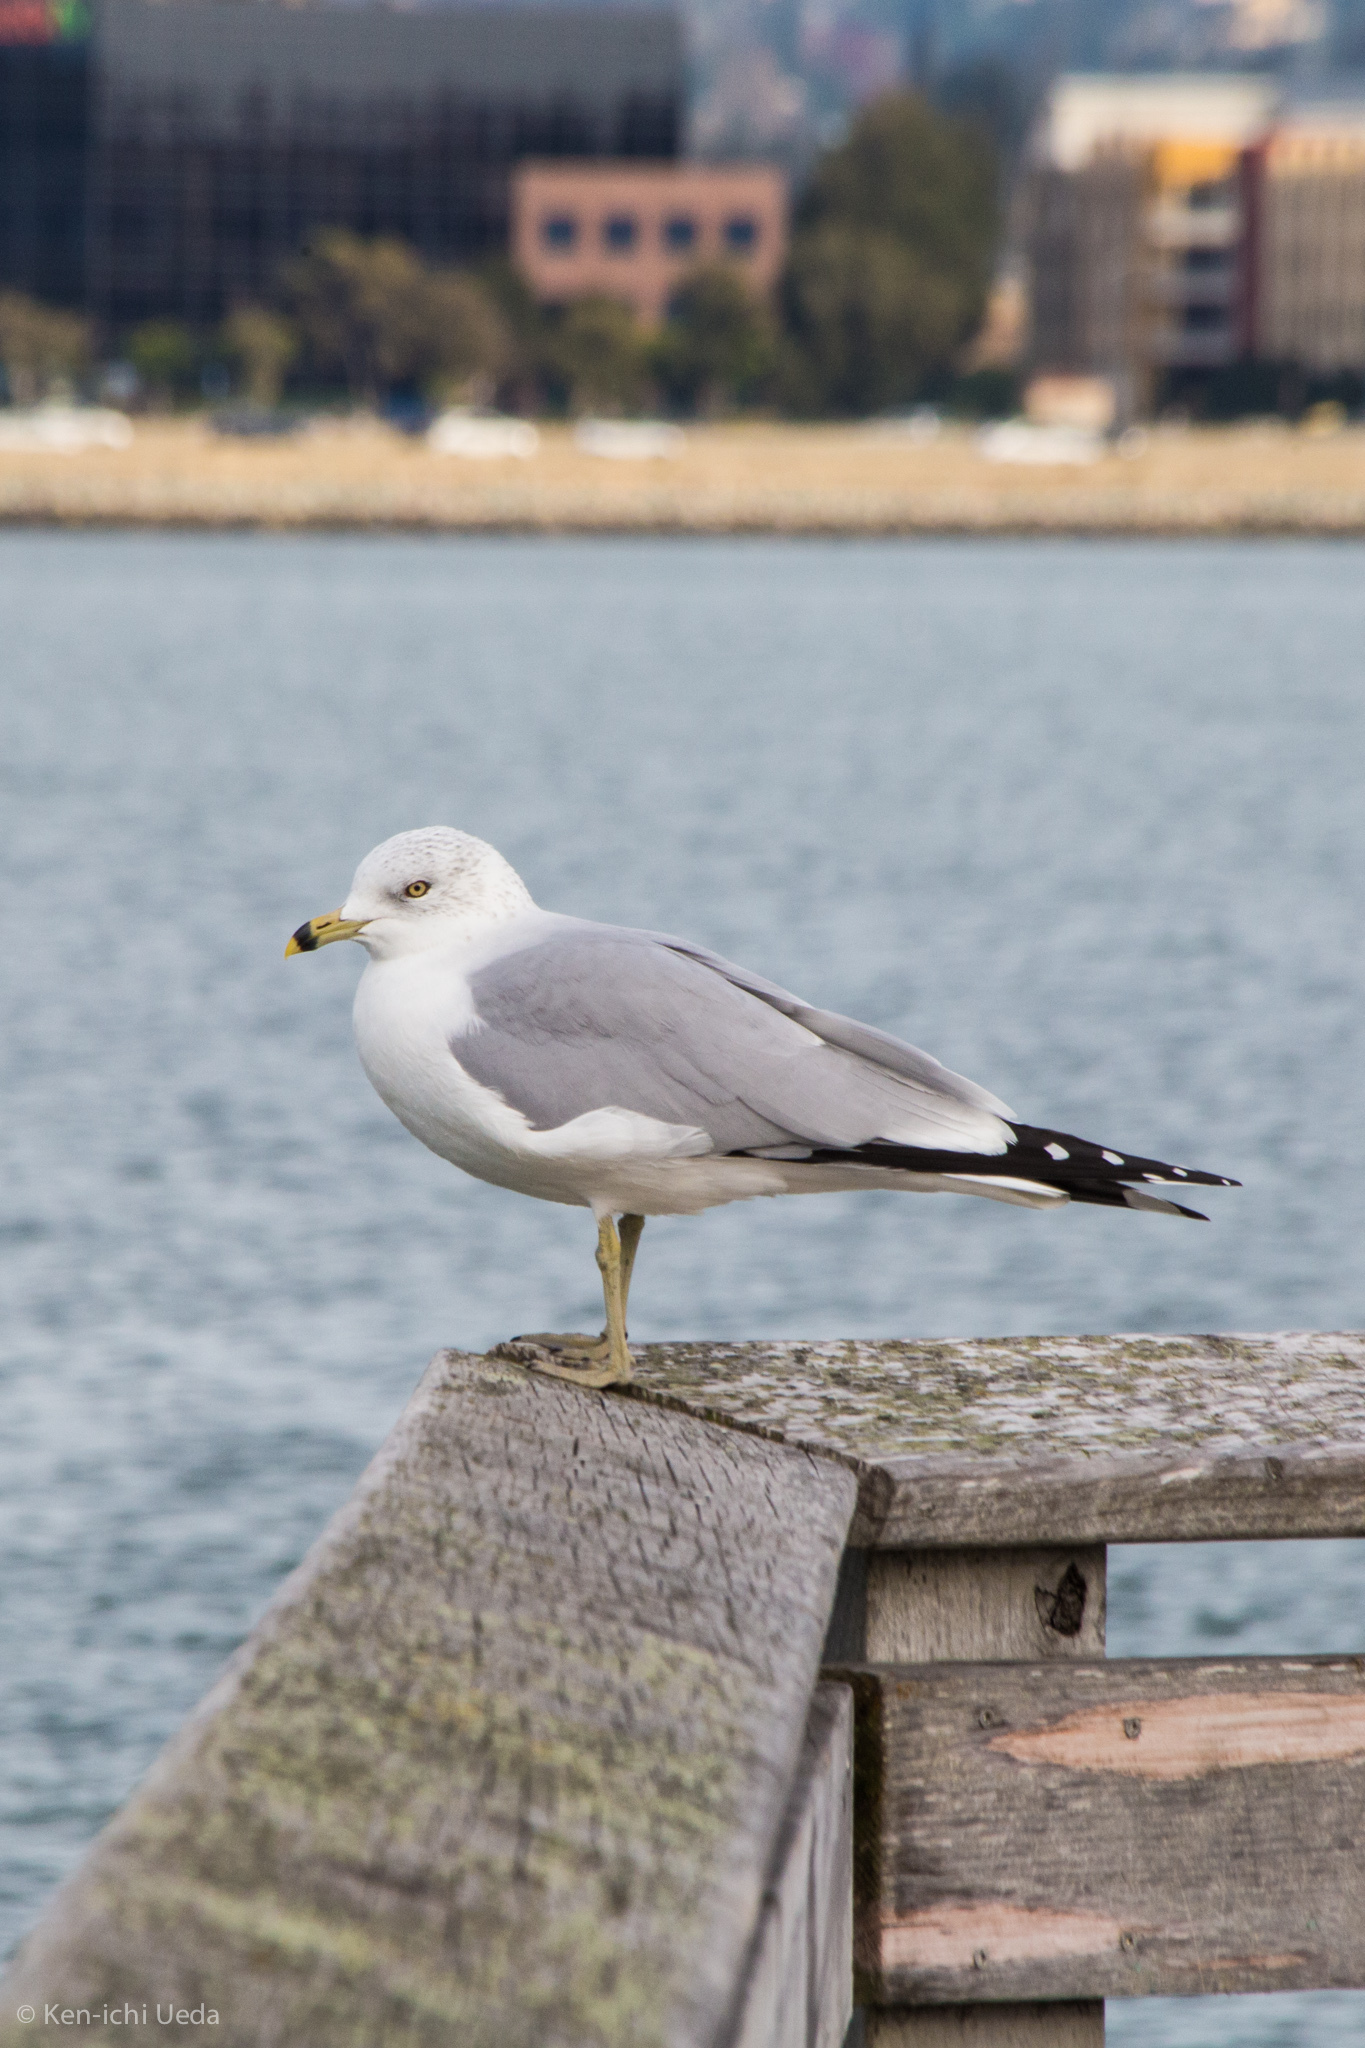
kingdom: Animalia
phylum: Chordata
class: Aves
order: Charadriiformes
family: Laridae
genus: Larus
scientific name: Larus delawarensis
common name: Ring-billed gull
